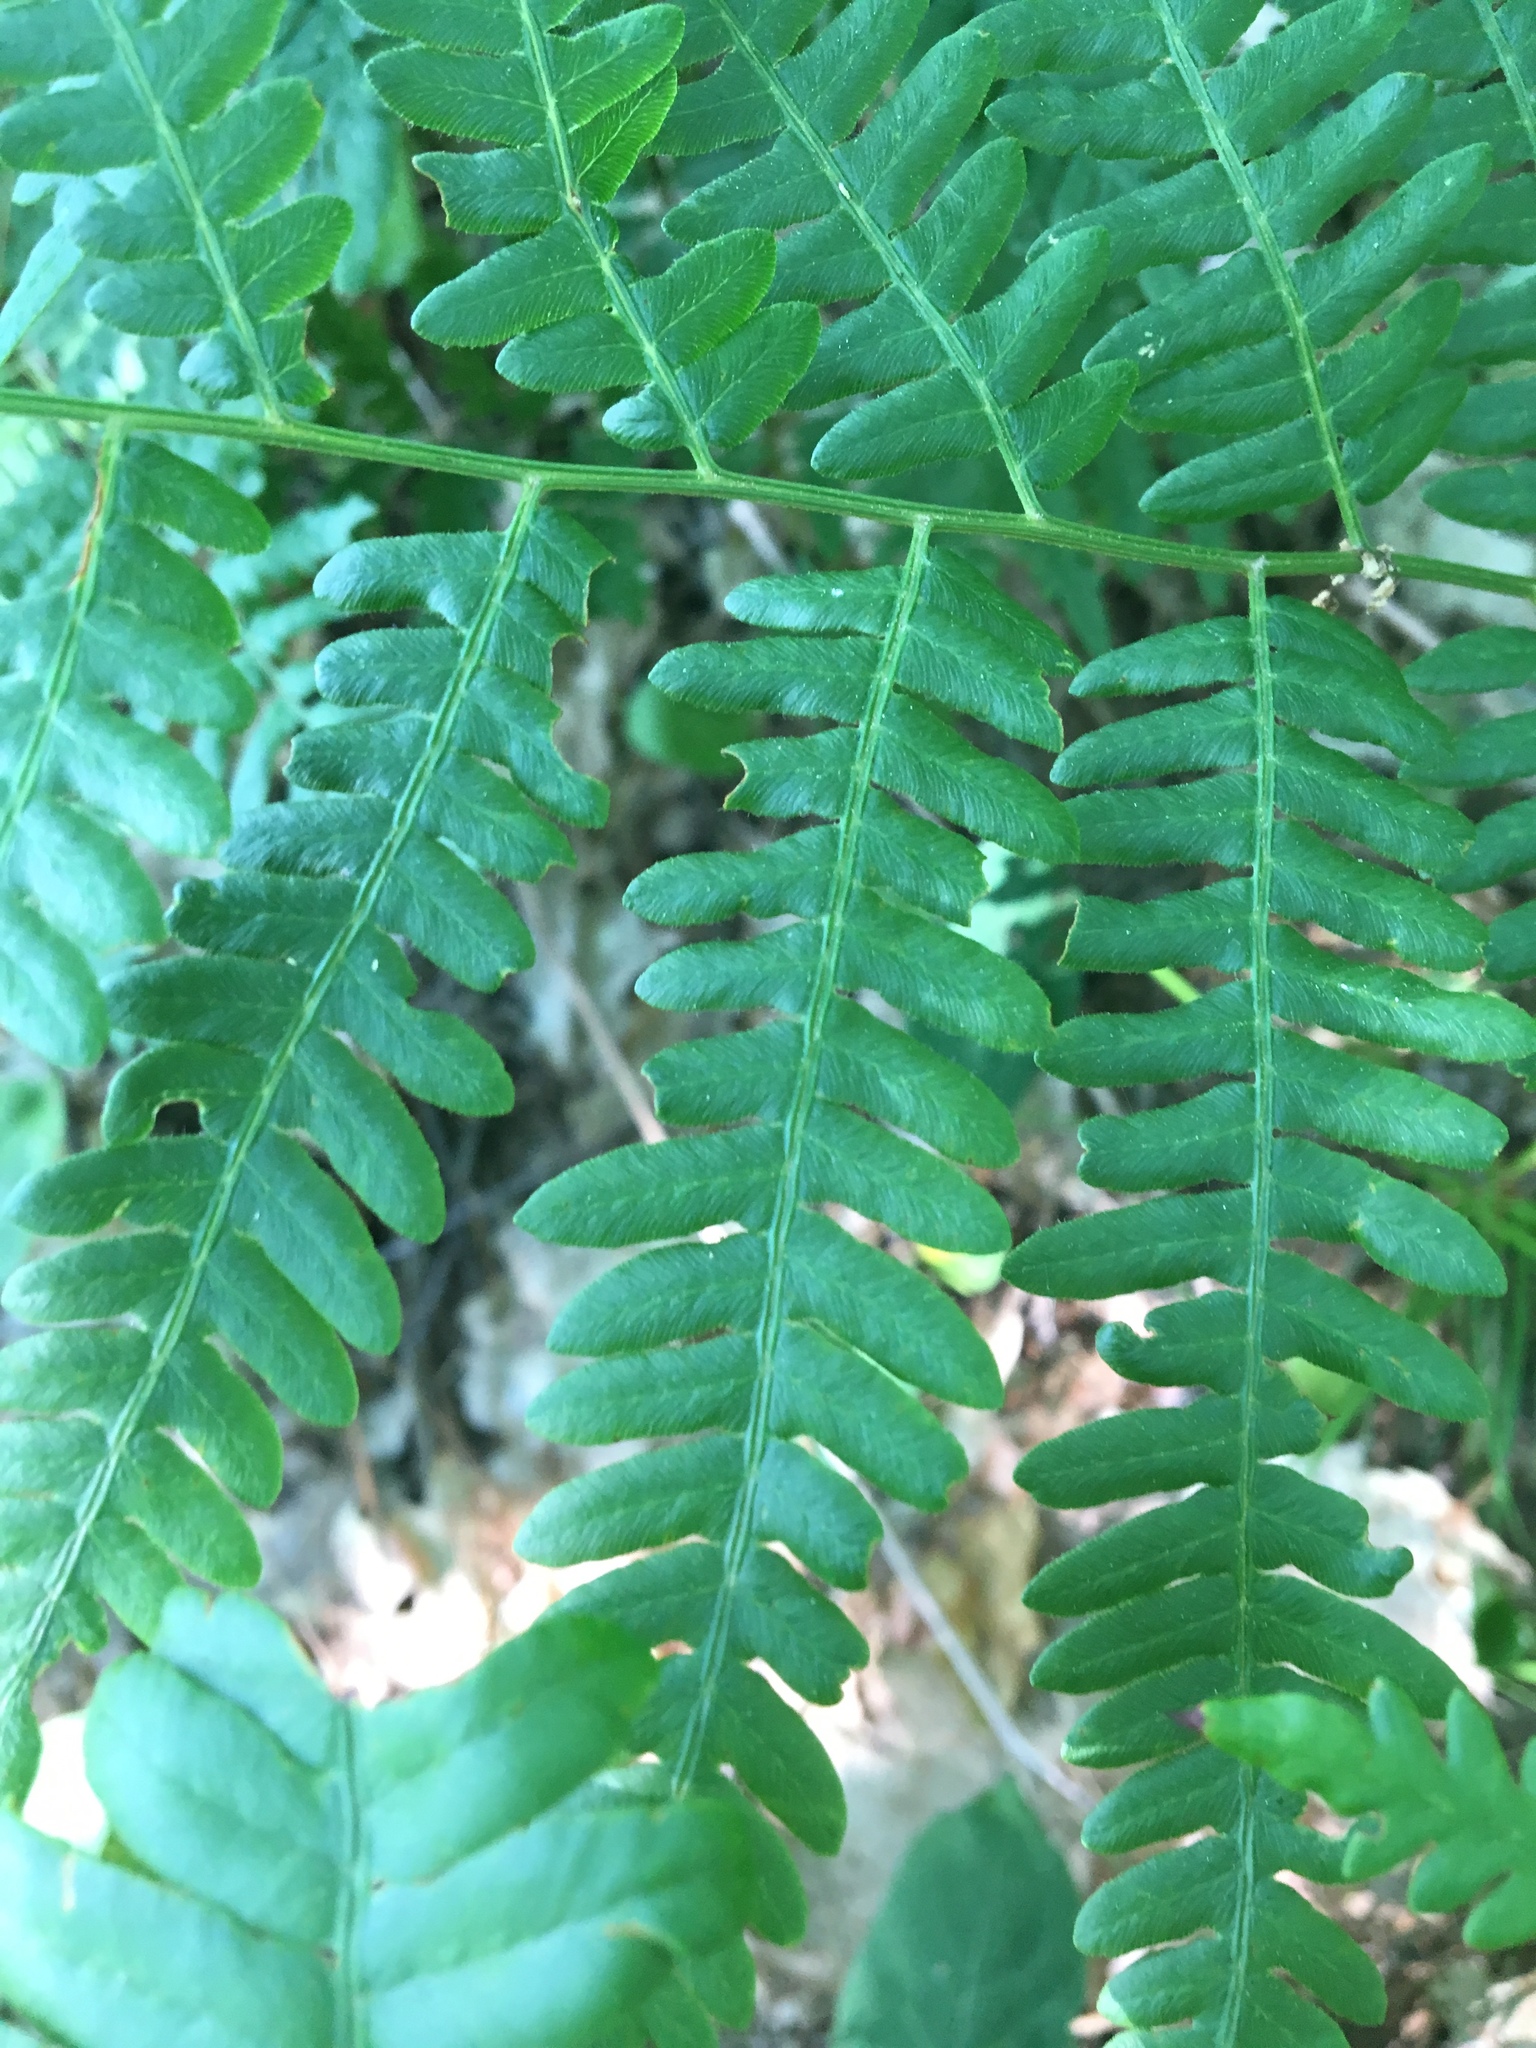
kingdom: Plantae
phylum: Tracheophyta
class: Polypodiopsida
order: Polypodiales
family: Dennstaedtiaceae
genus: Pteridium
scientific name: Pteridium aquilinum
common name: Bracken
